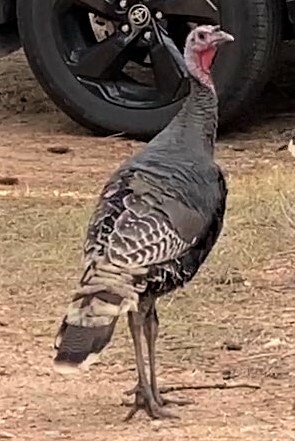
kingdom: Animalia
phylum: Chordata
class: Aves
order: Galliformes
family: Phasianidae
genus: Meleagris
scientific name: Meleagris gallopavo
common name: Wild turkey
